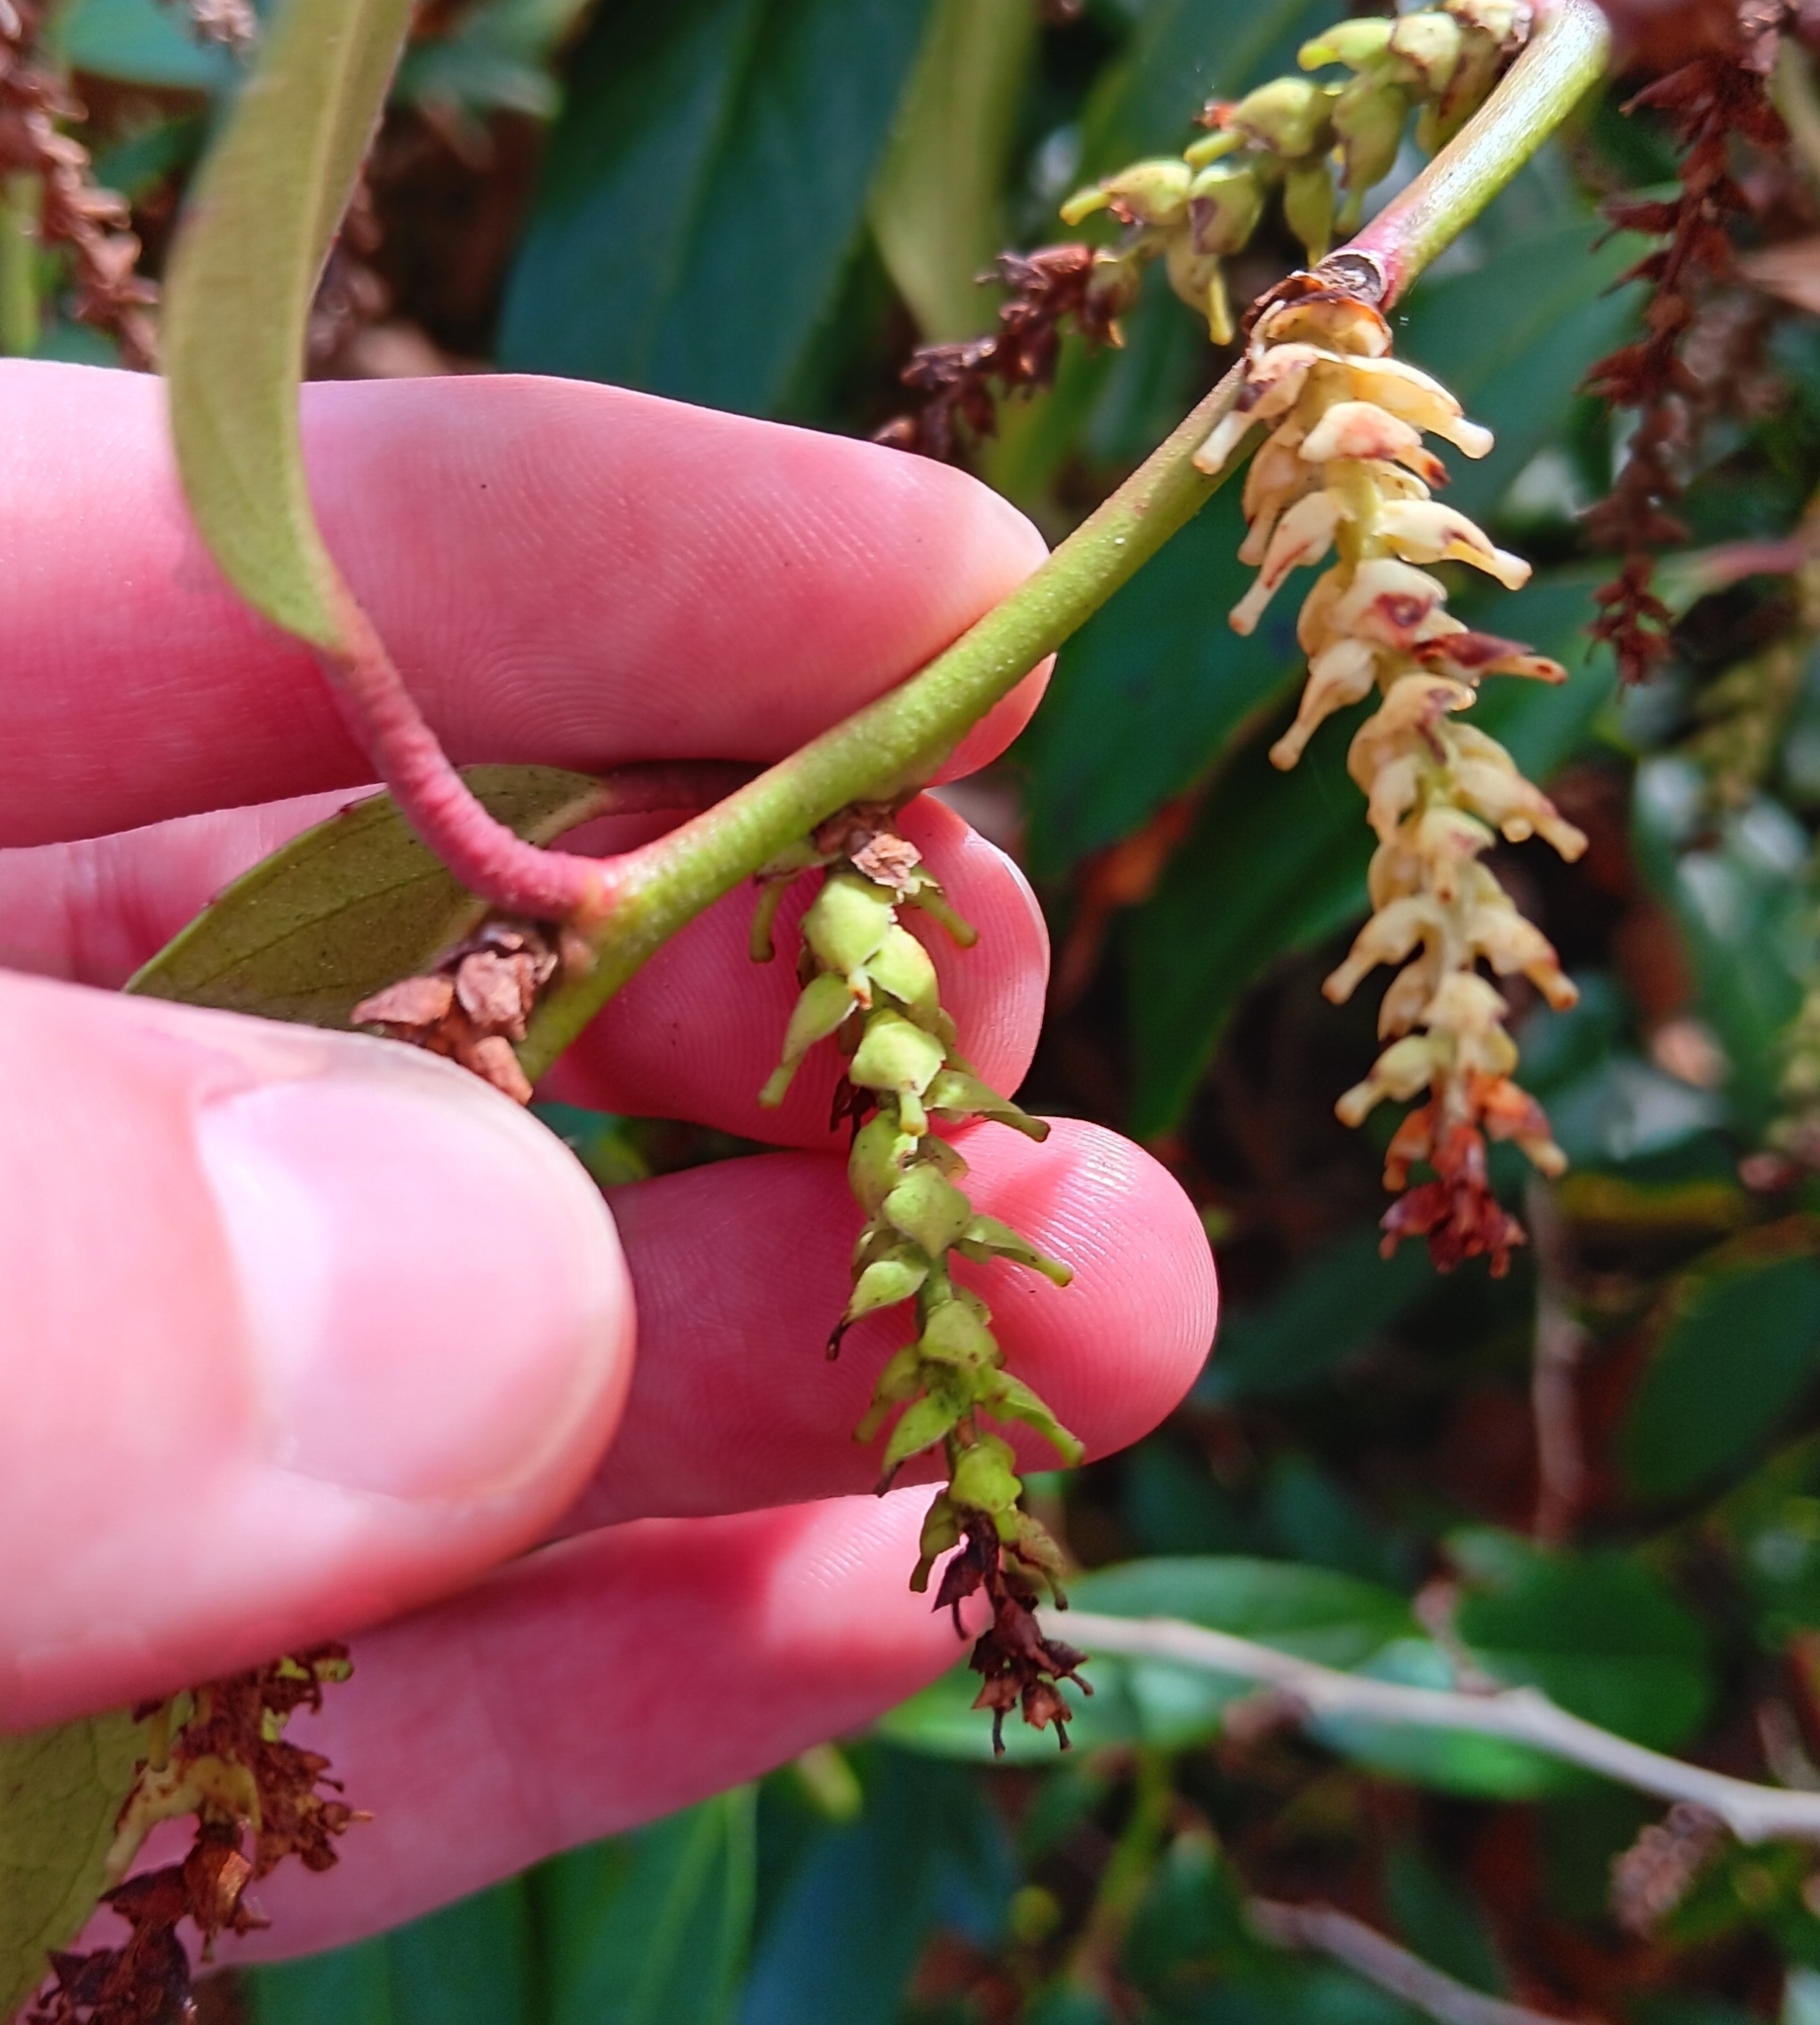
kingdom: Plantae
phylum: Tracheophyta
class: Magnoliopsida
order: Ericales
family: Ericaceae
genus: Leucothoe
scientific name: Leucothoe fontanesiana
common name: Fetterbush
